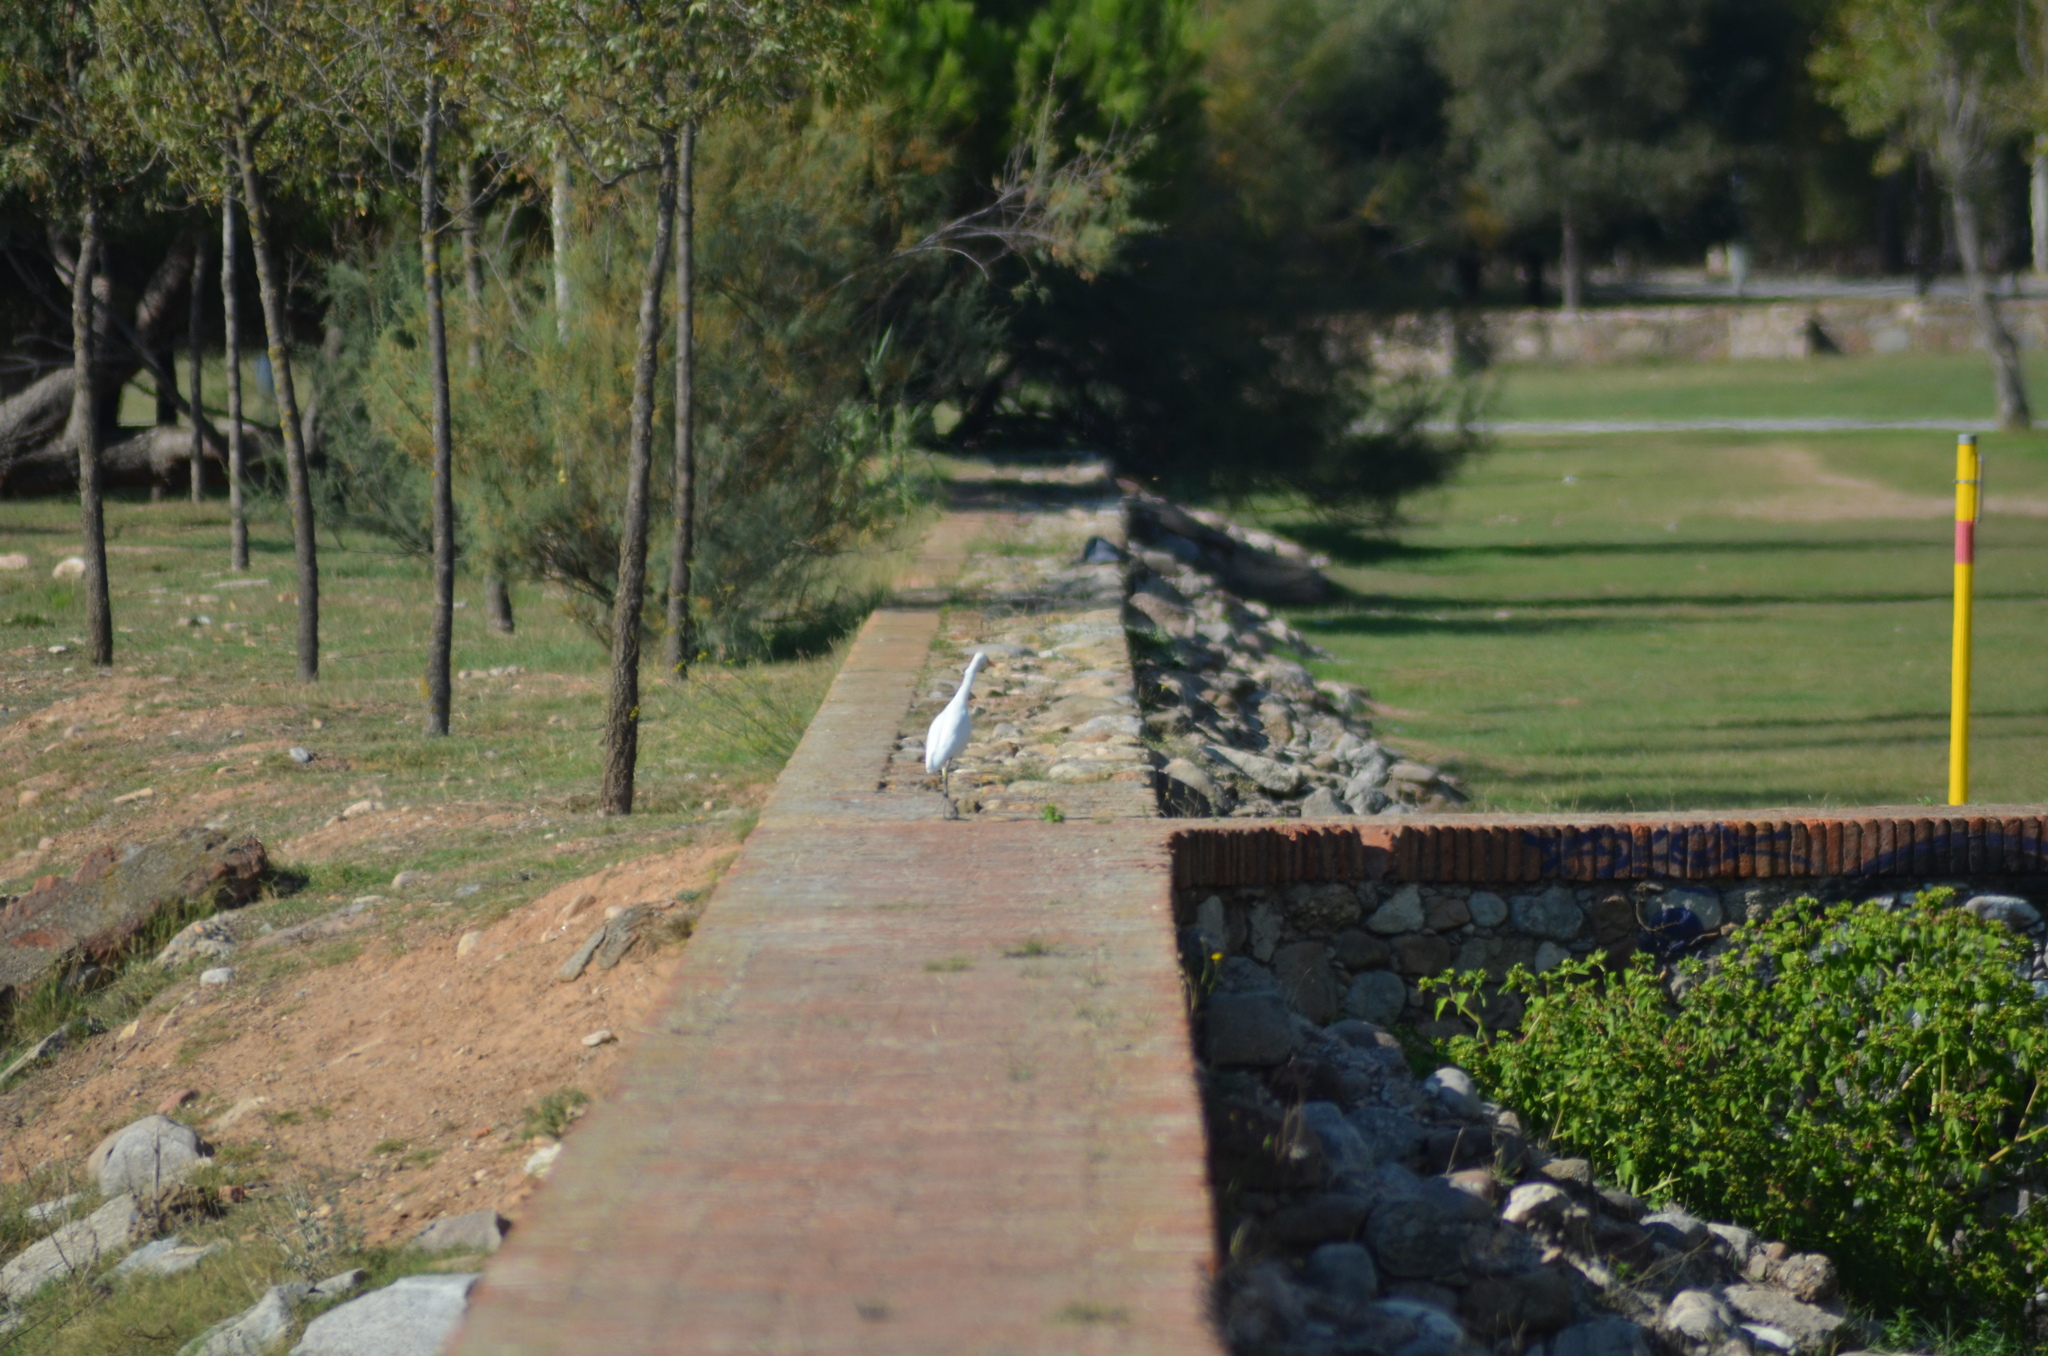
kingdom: Animalia
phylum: Chordata
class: Aves
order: Pelecaniformes
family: Ardeidae
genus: Bubulcus
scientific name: Bubulcus ibis
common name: Cattle egret
